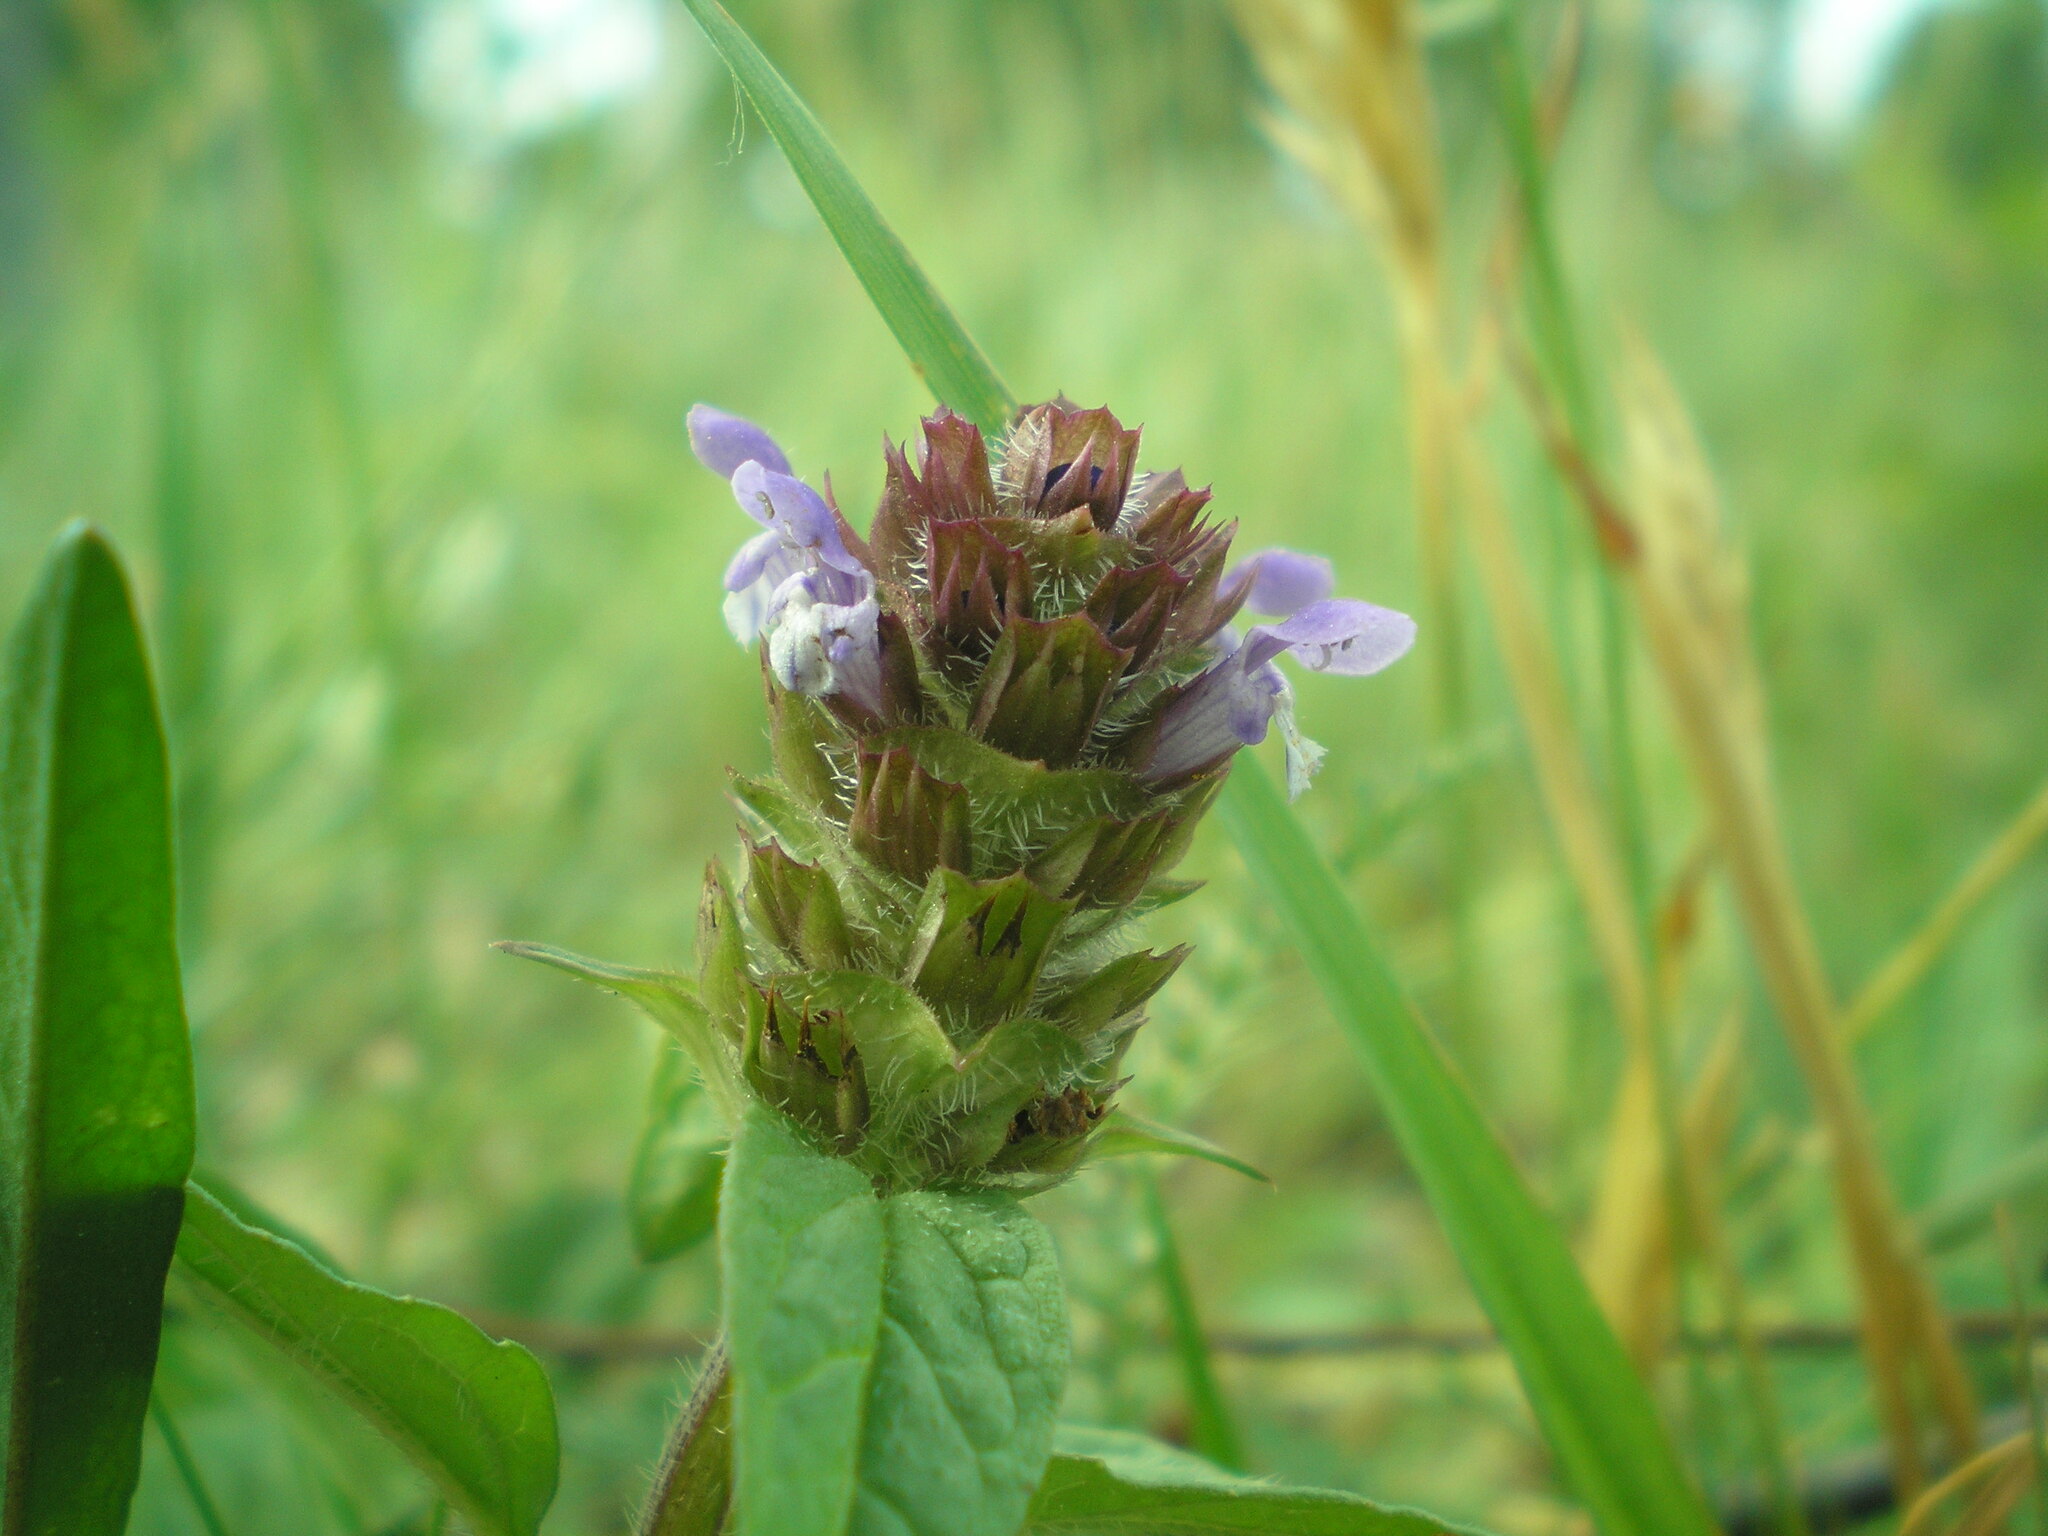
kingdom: Plantae
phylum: Tracheophyta
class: Magnoliopsida
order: Lamiales
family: Lamiaceae
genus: Prunella
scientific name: Prunella vulgaris
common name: Heal-all
